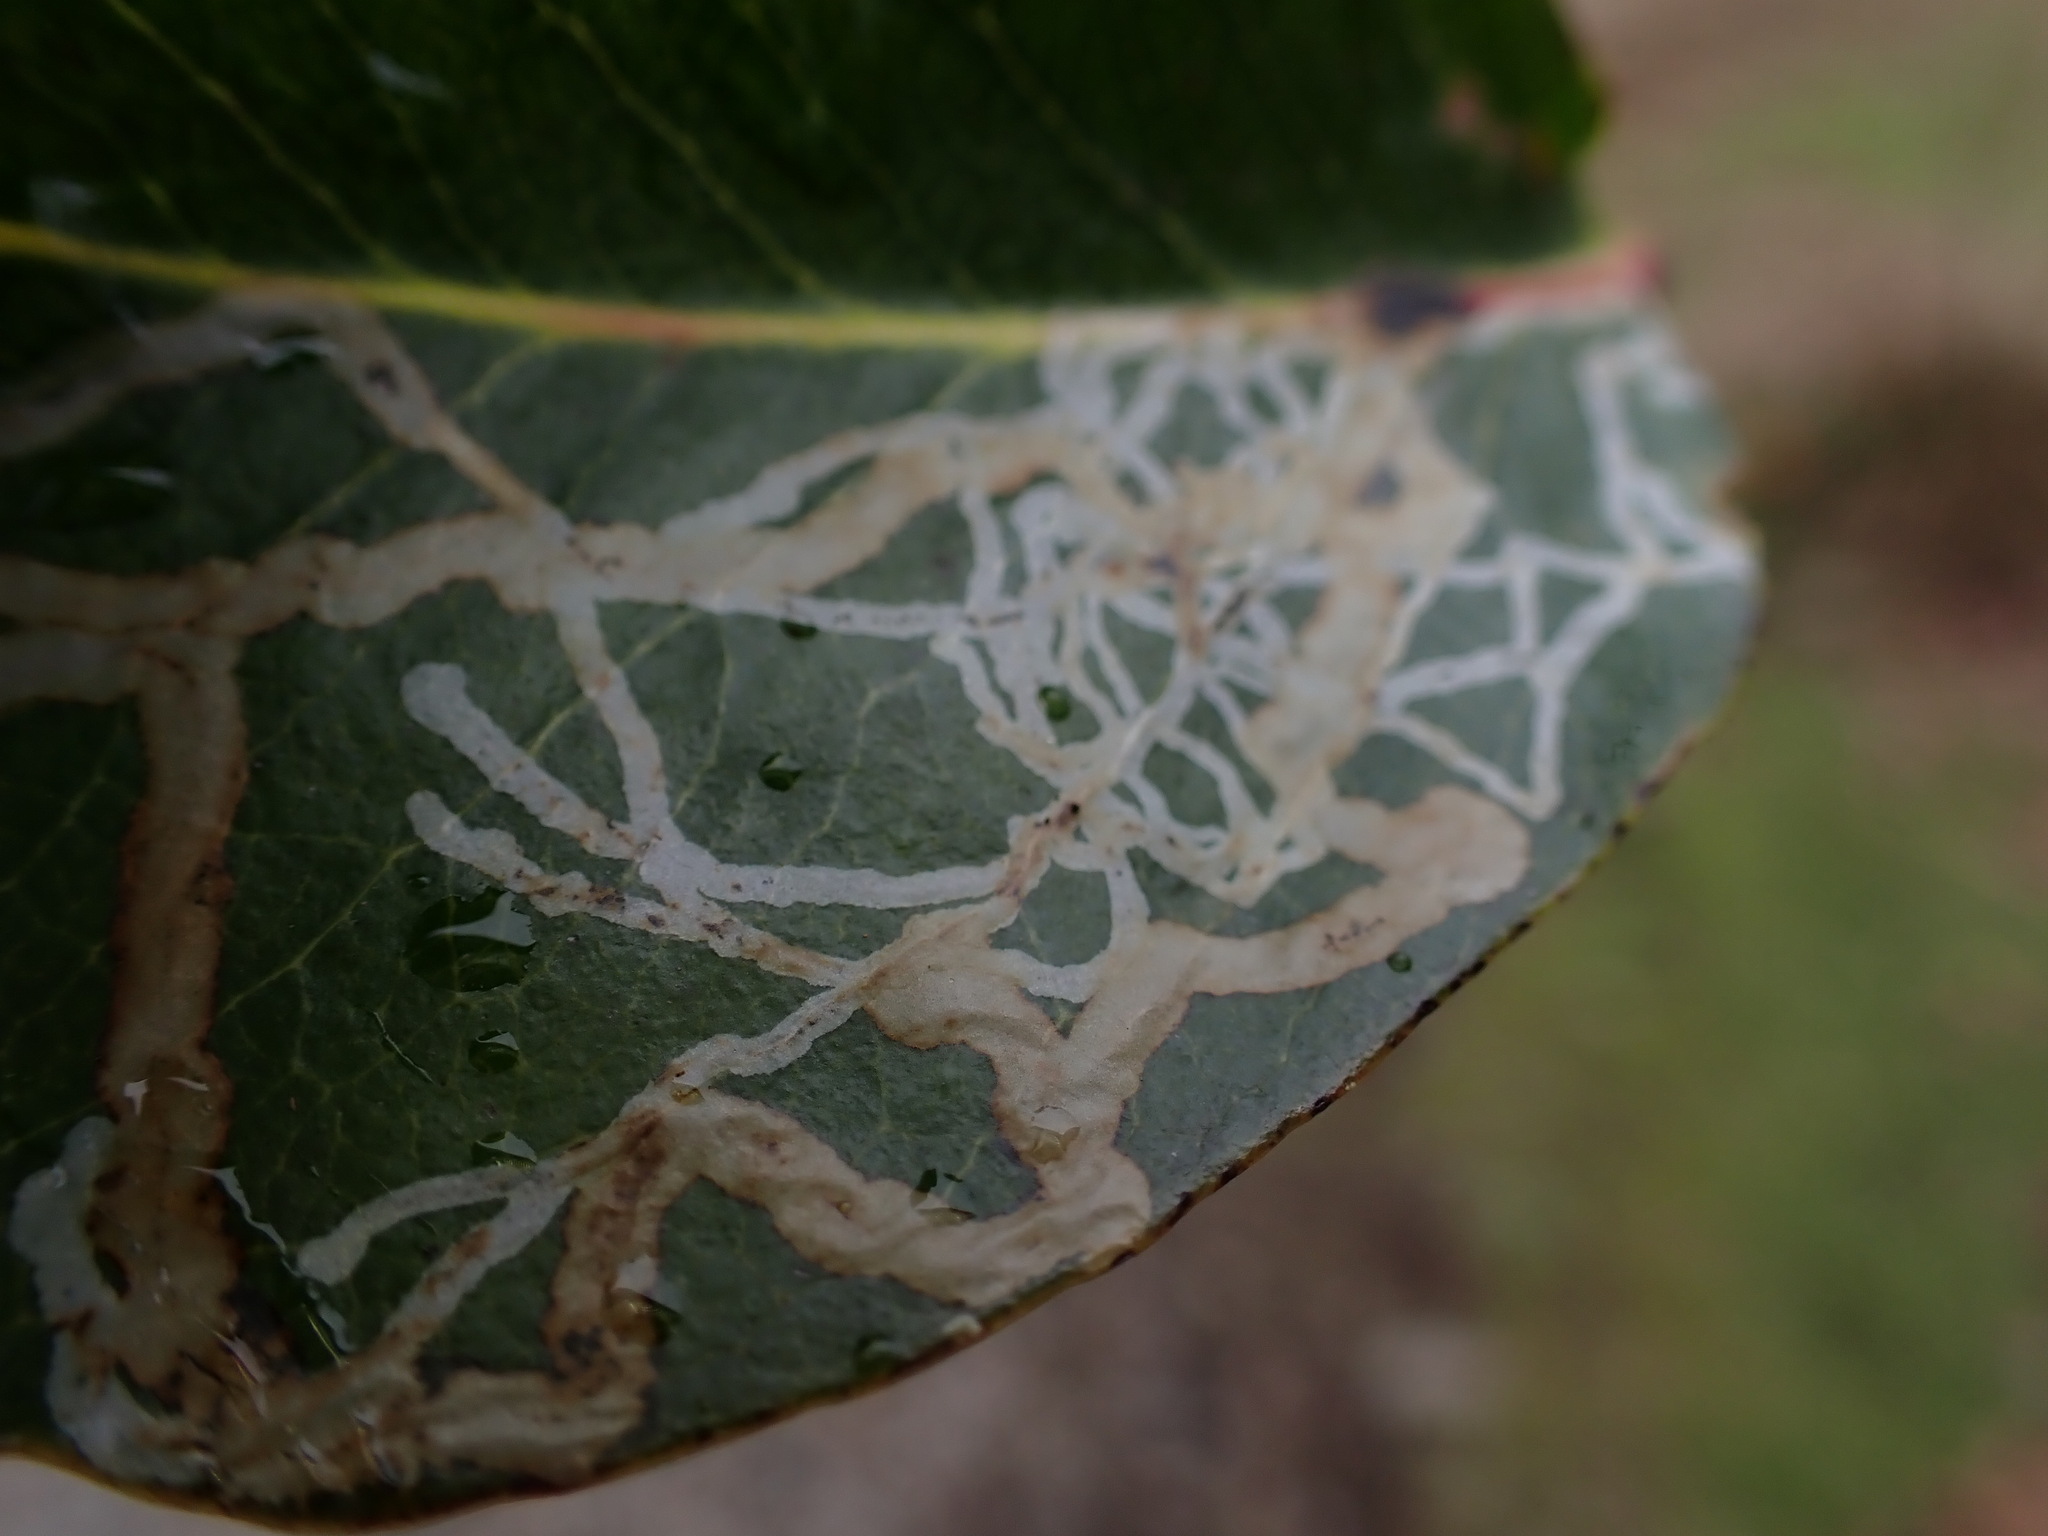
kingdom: Animalia
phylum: Arthropoda
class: Insecta
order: Lepidoptera
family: Gracillariidae
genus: Marmara
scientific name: Marmara arbutiella
